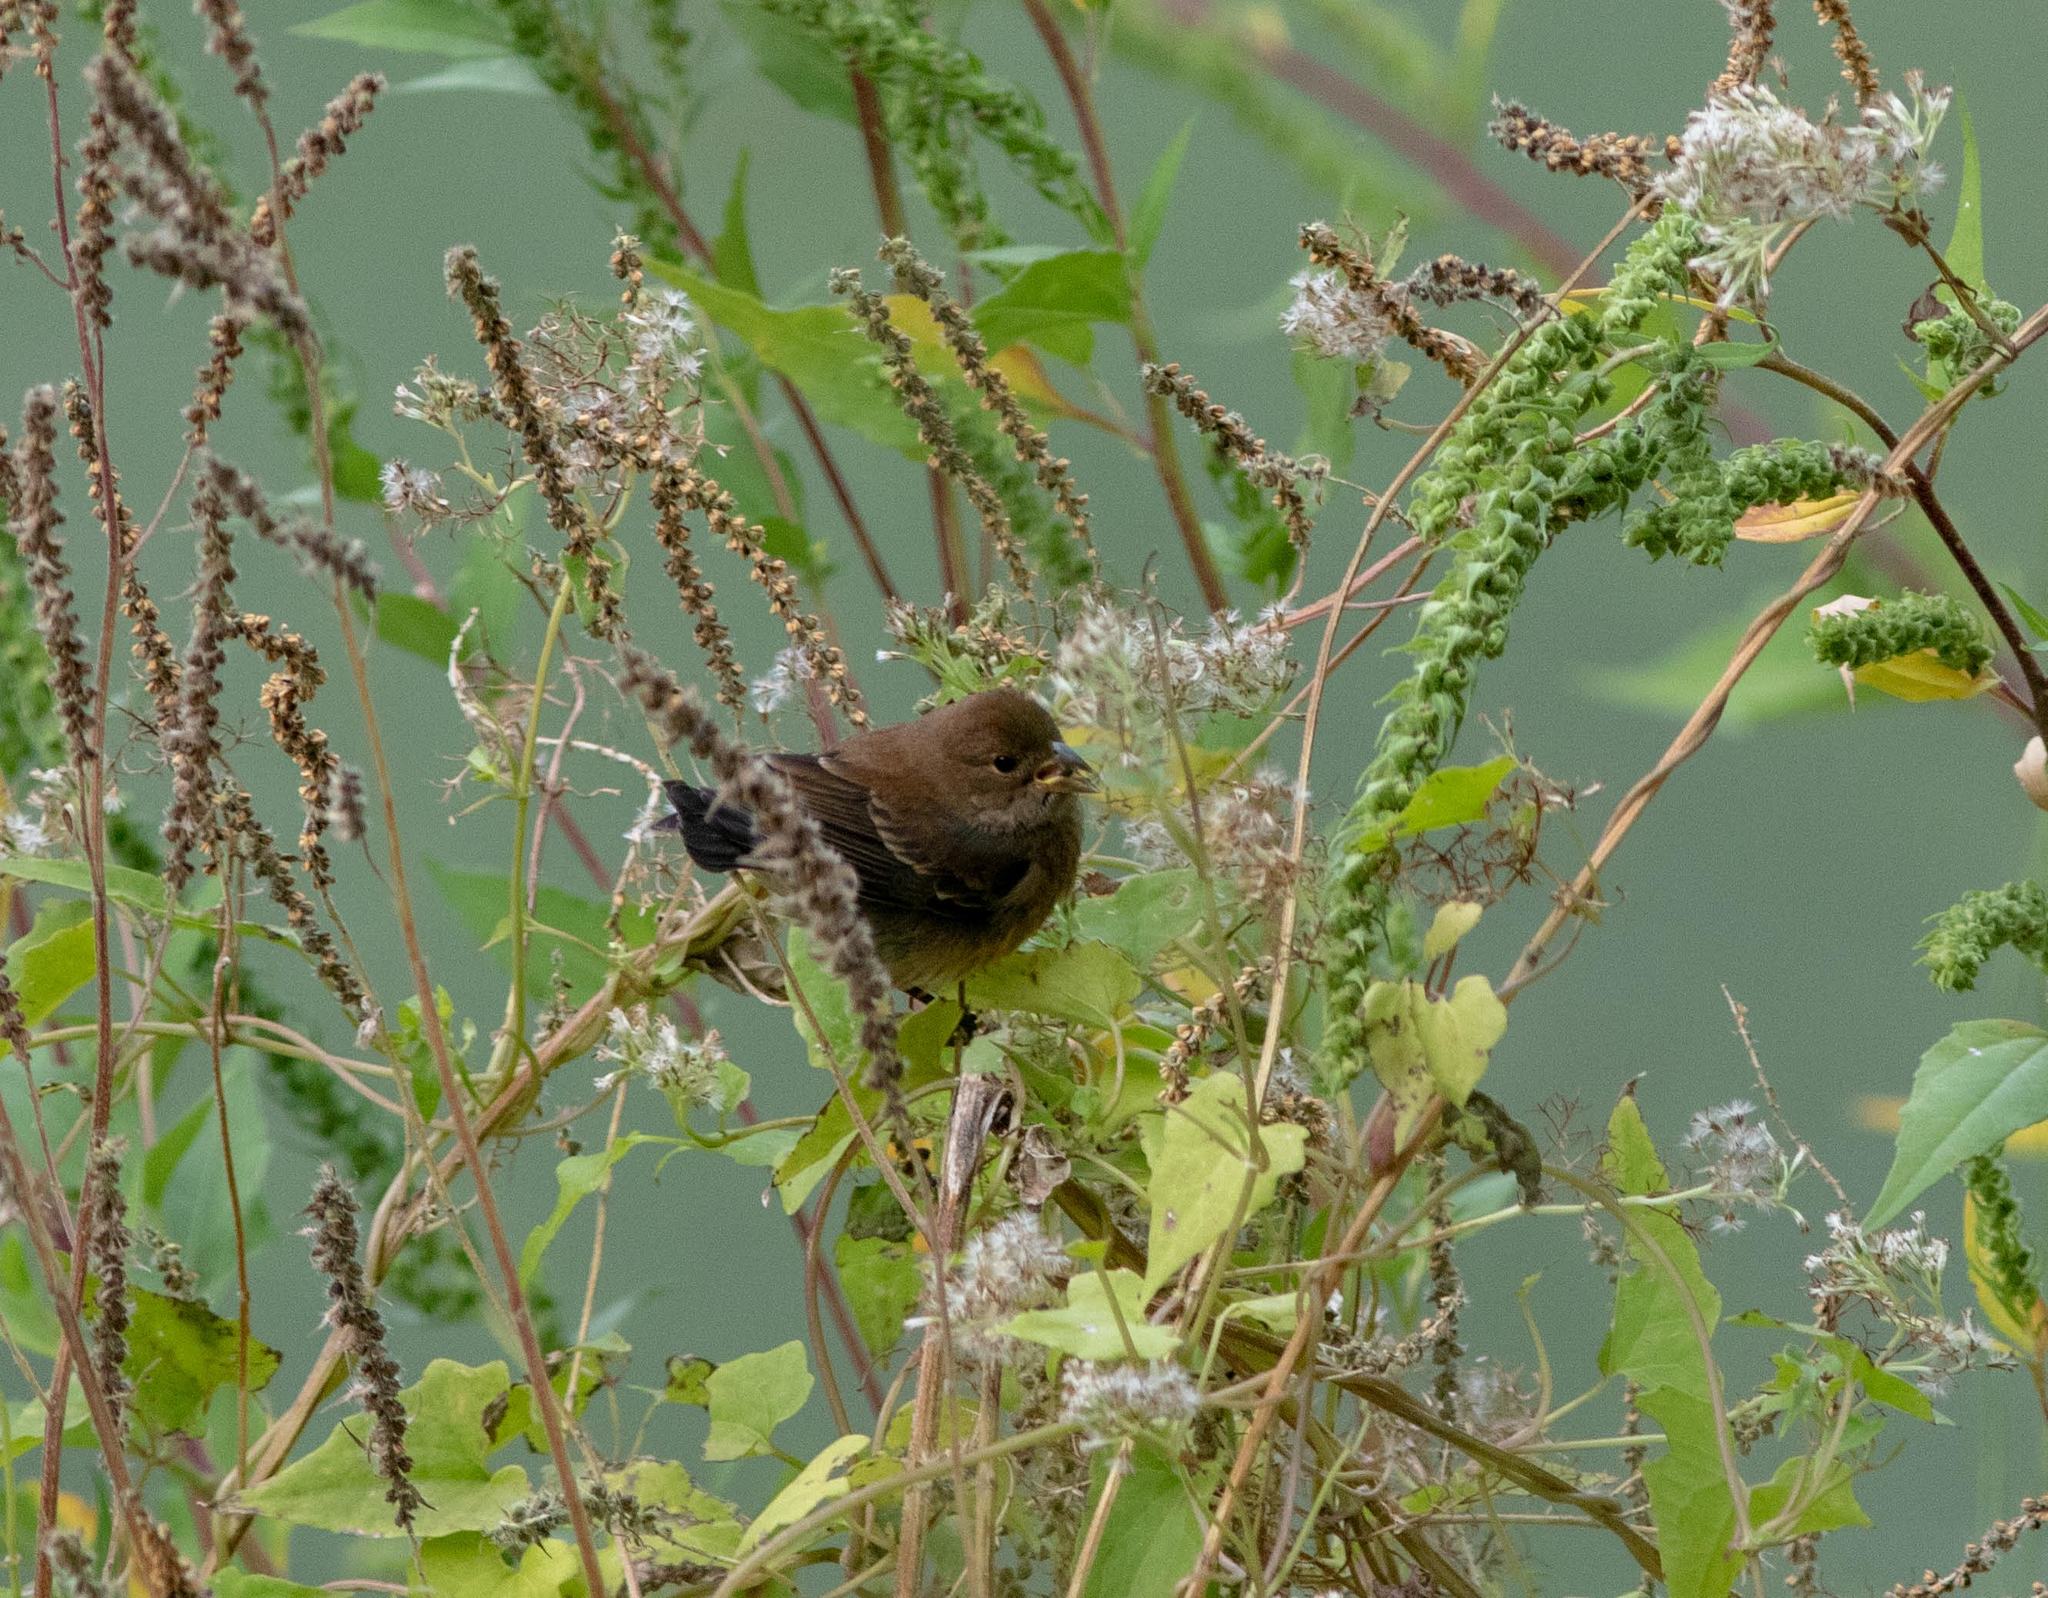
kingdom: Animalia
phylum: Chordata
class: Aves
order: Passeriformes
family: Cardinalidae
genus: Passerina
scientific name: Passerina cyanea
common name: Indigo bunting
